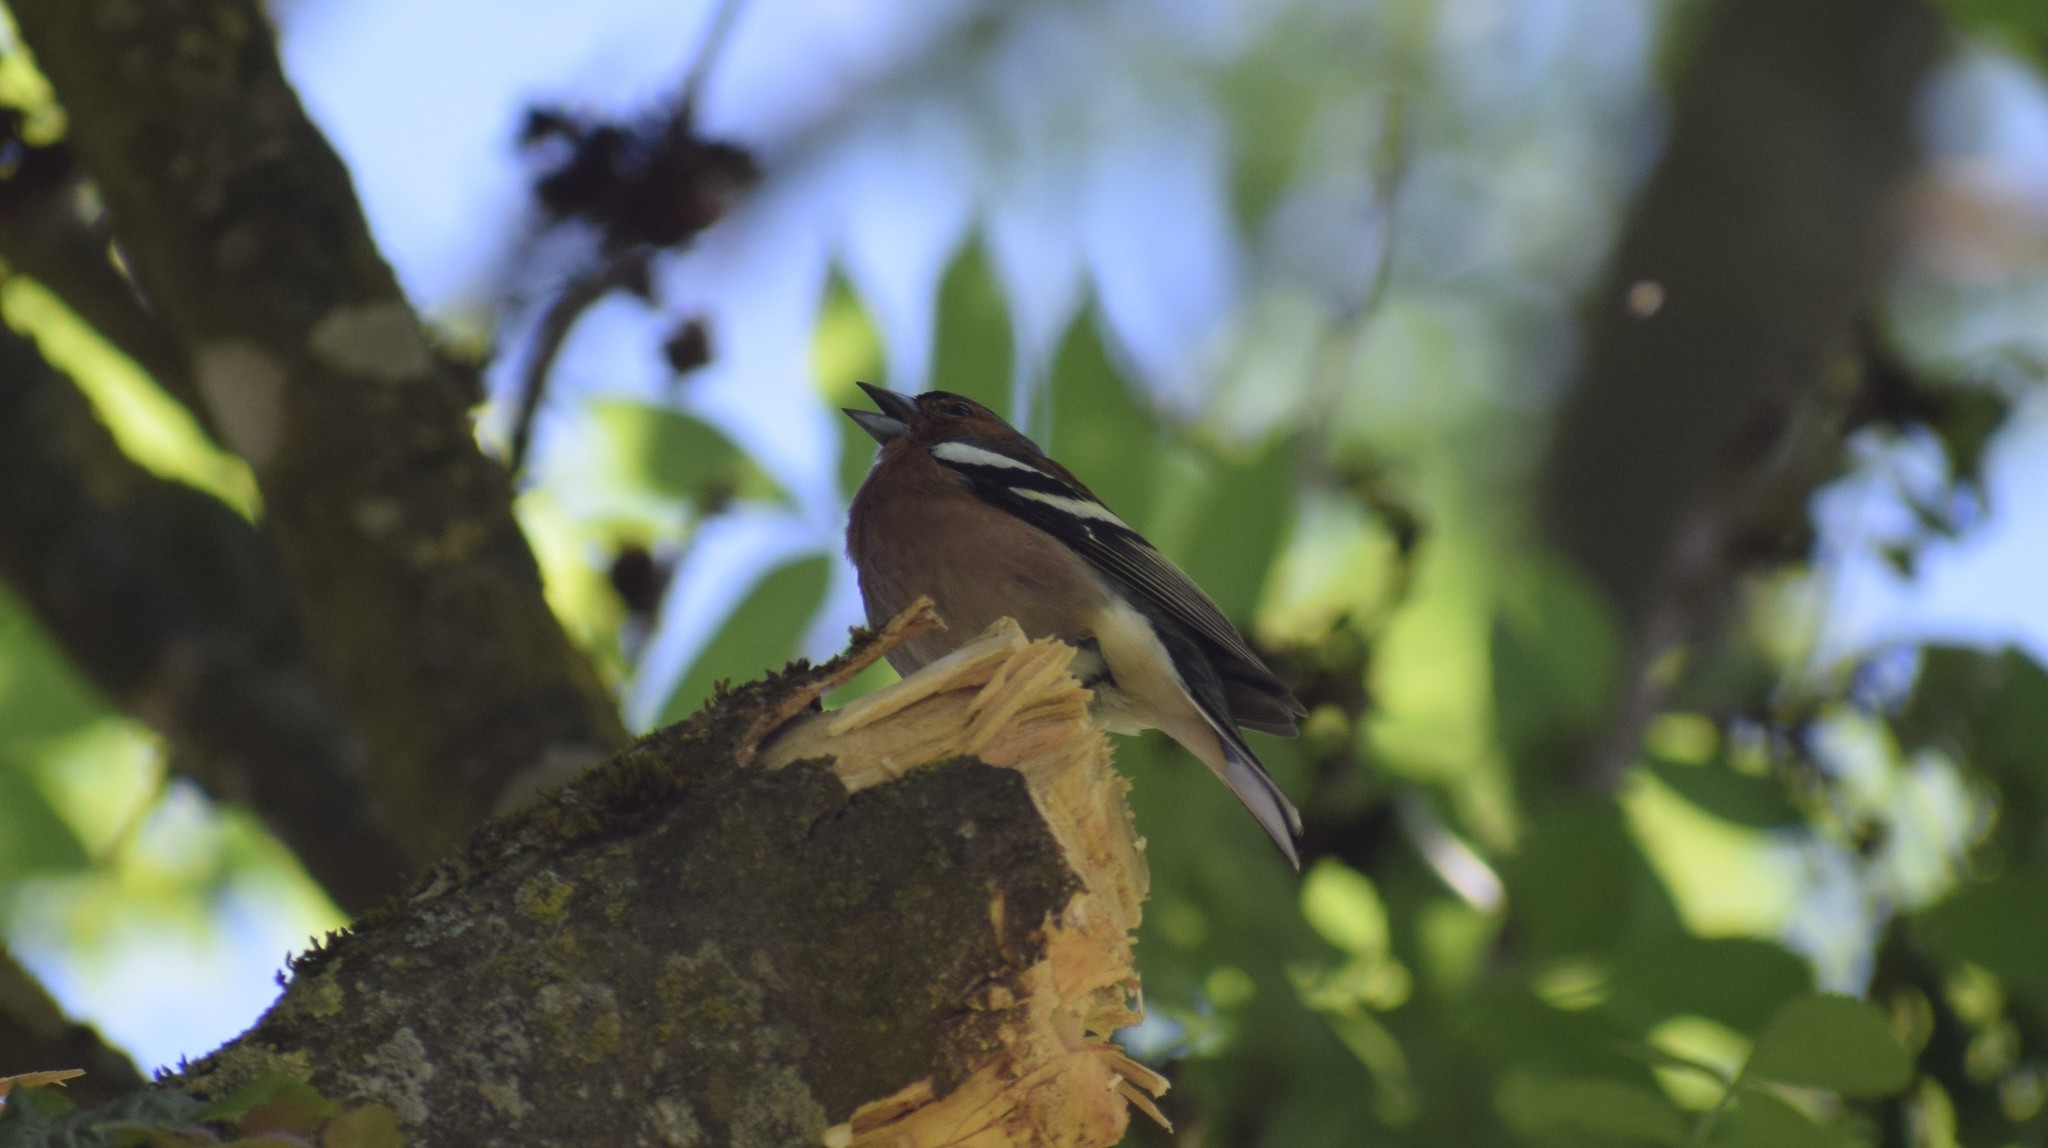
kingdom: Animalia
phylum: Chordata
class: Aves
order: Passeriformes
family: Fringillidae
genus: Fringilla
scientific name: Fringilla coelebs
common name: Common chaffinch
